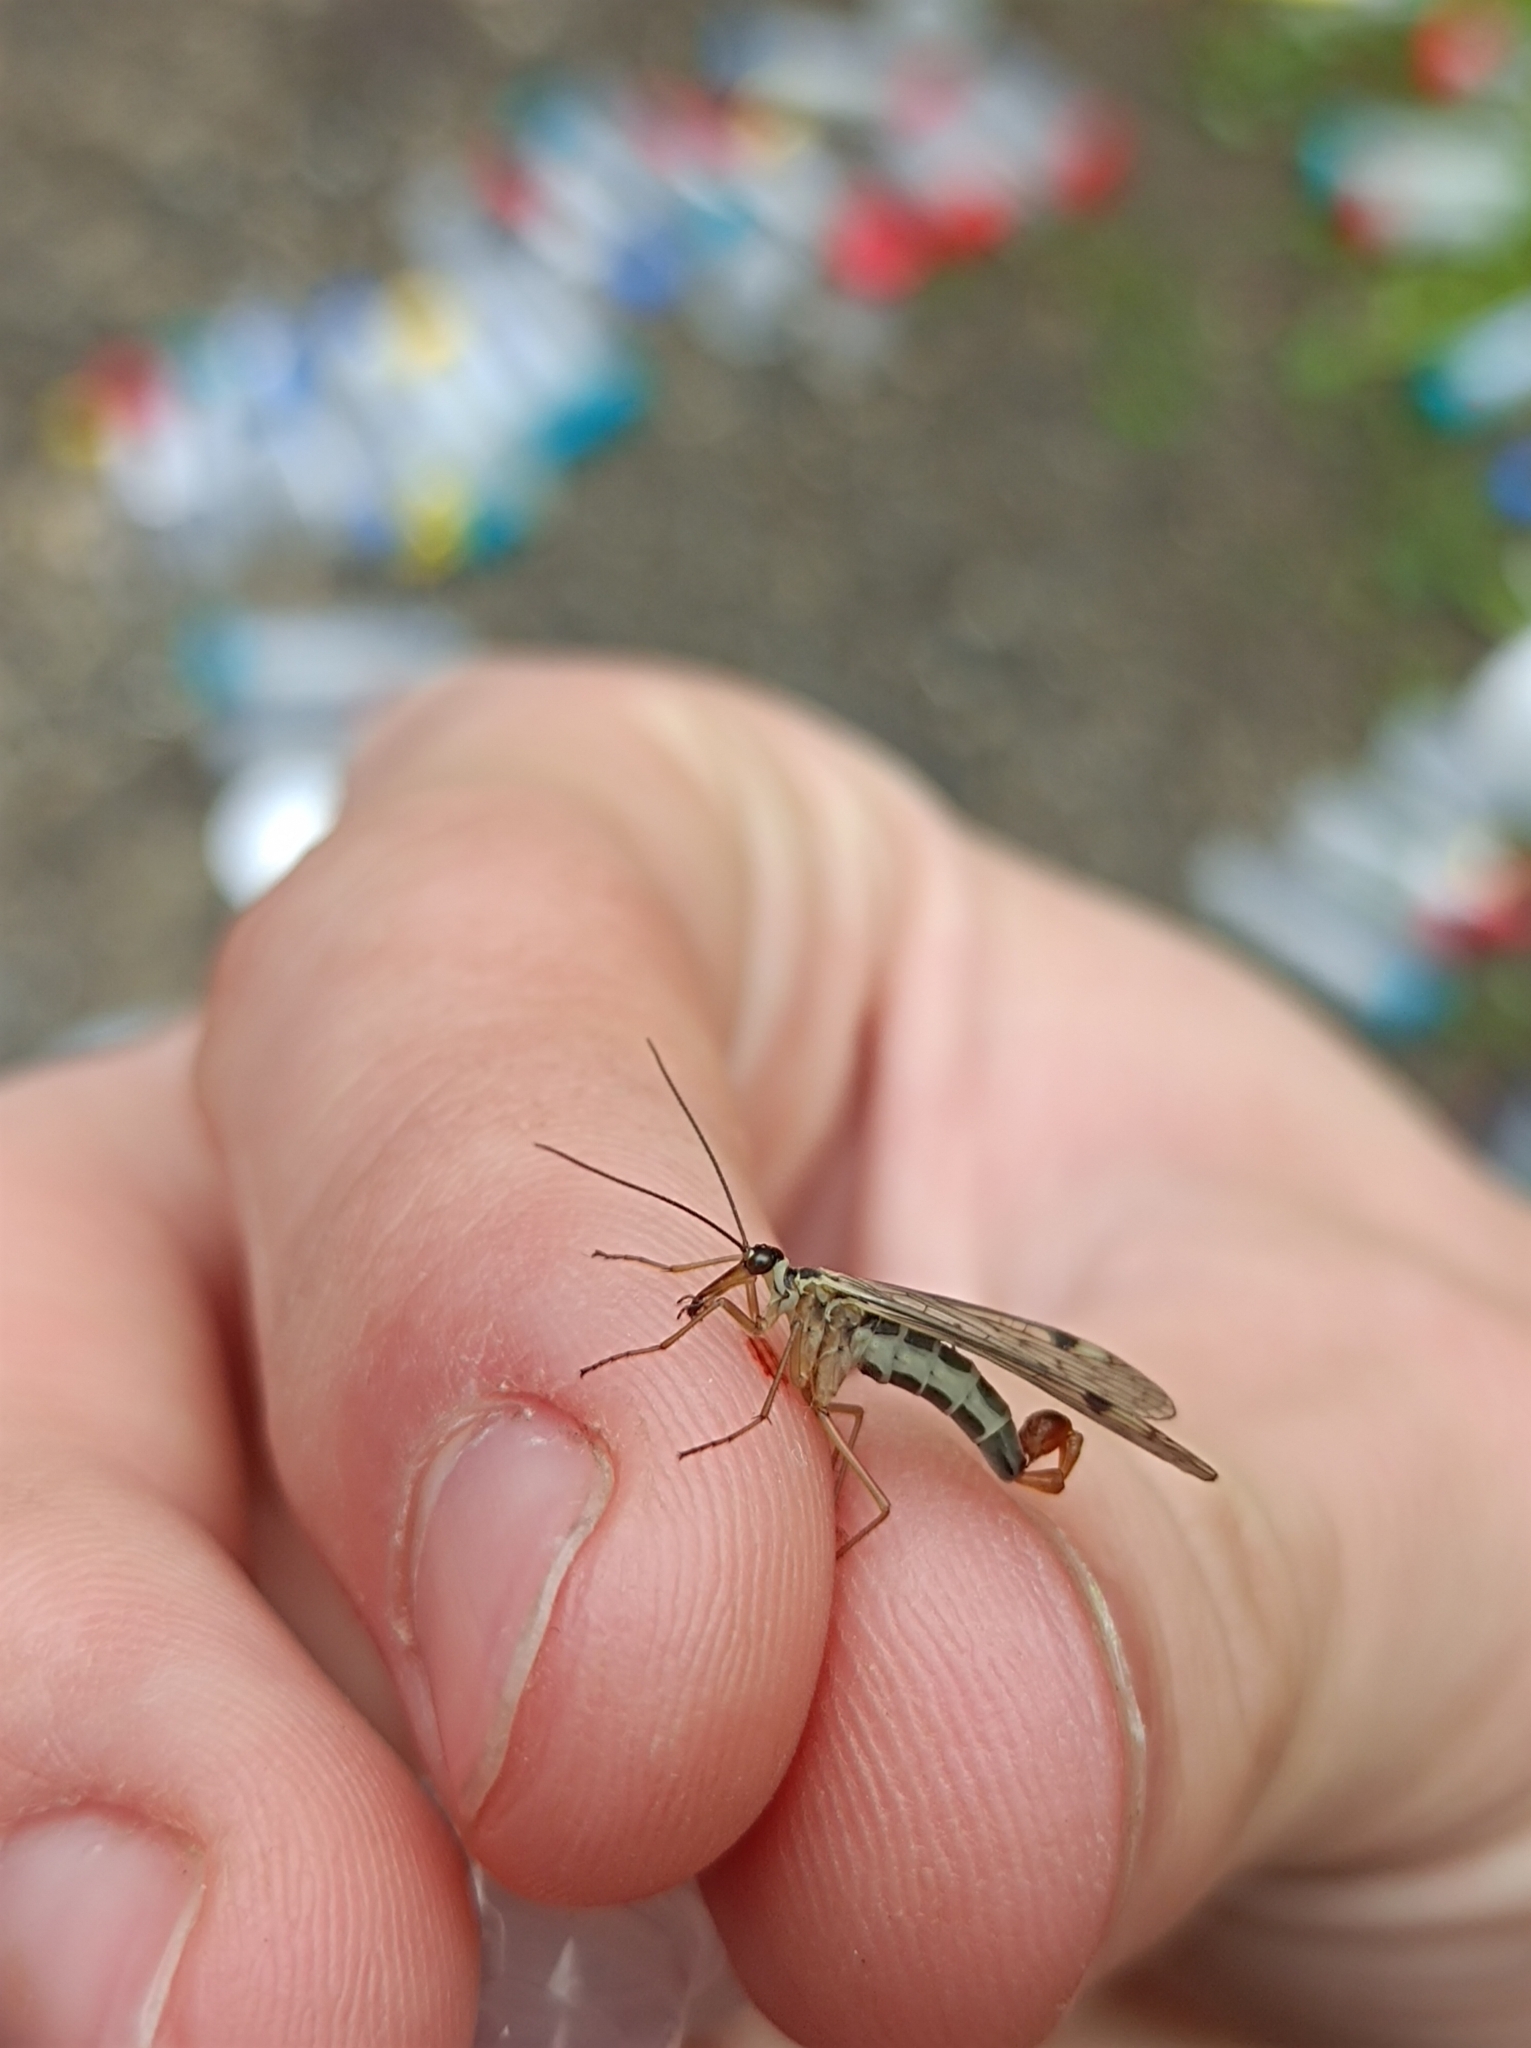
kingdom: Animalia
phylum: Arthropoda
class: Insecta
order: Mecoptera
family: Panorpidae
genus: Panorpa
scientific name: Panorpa alpina
